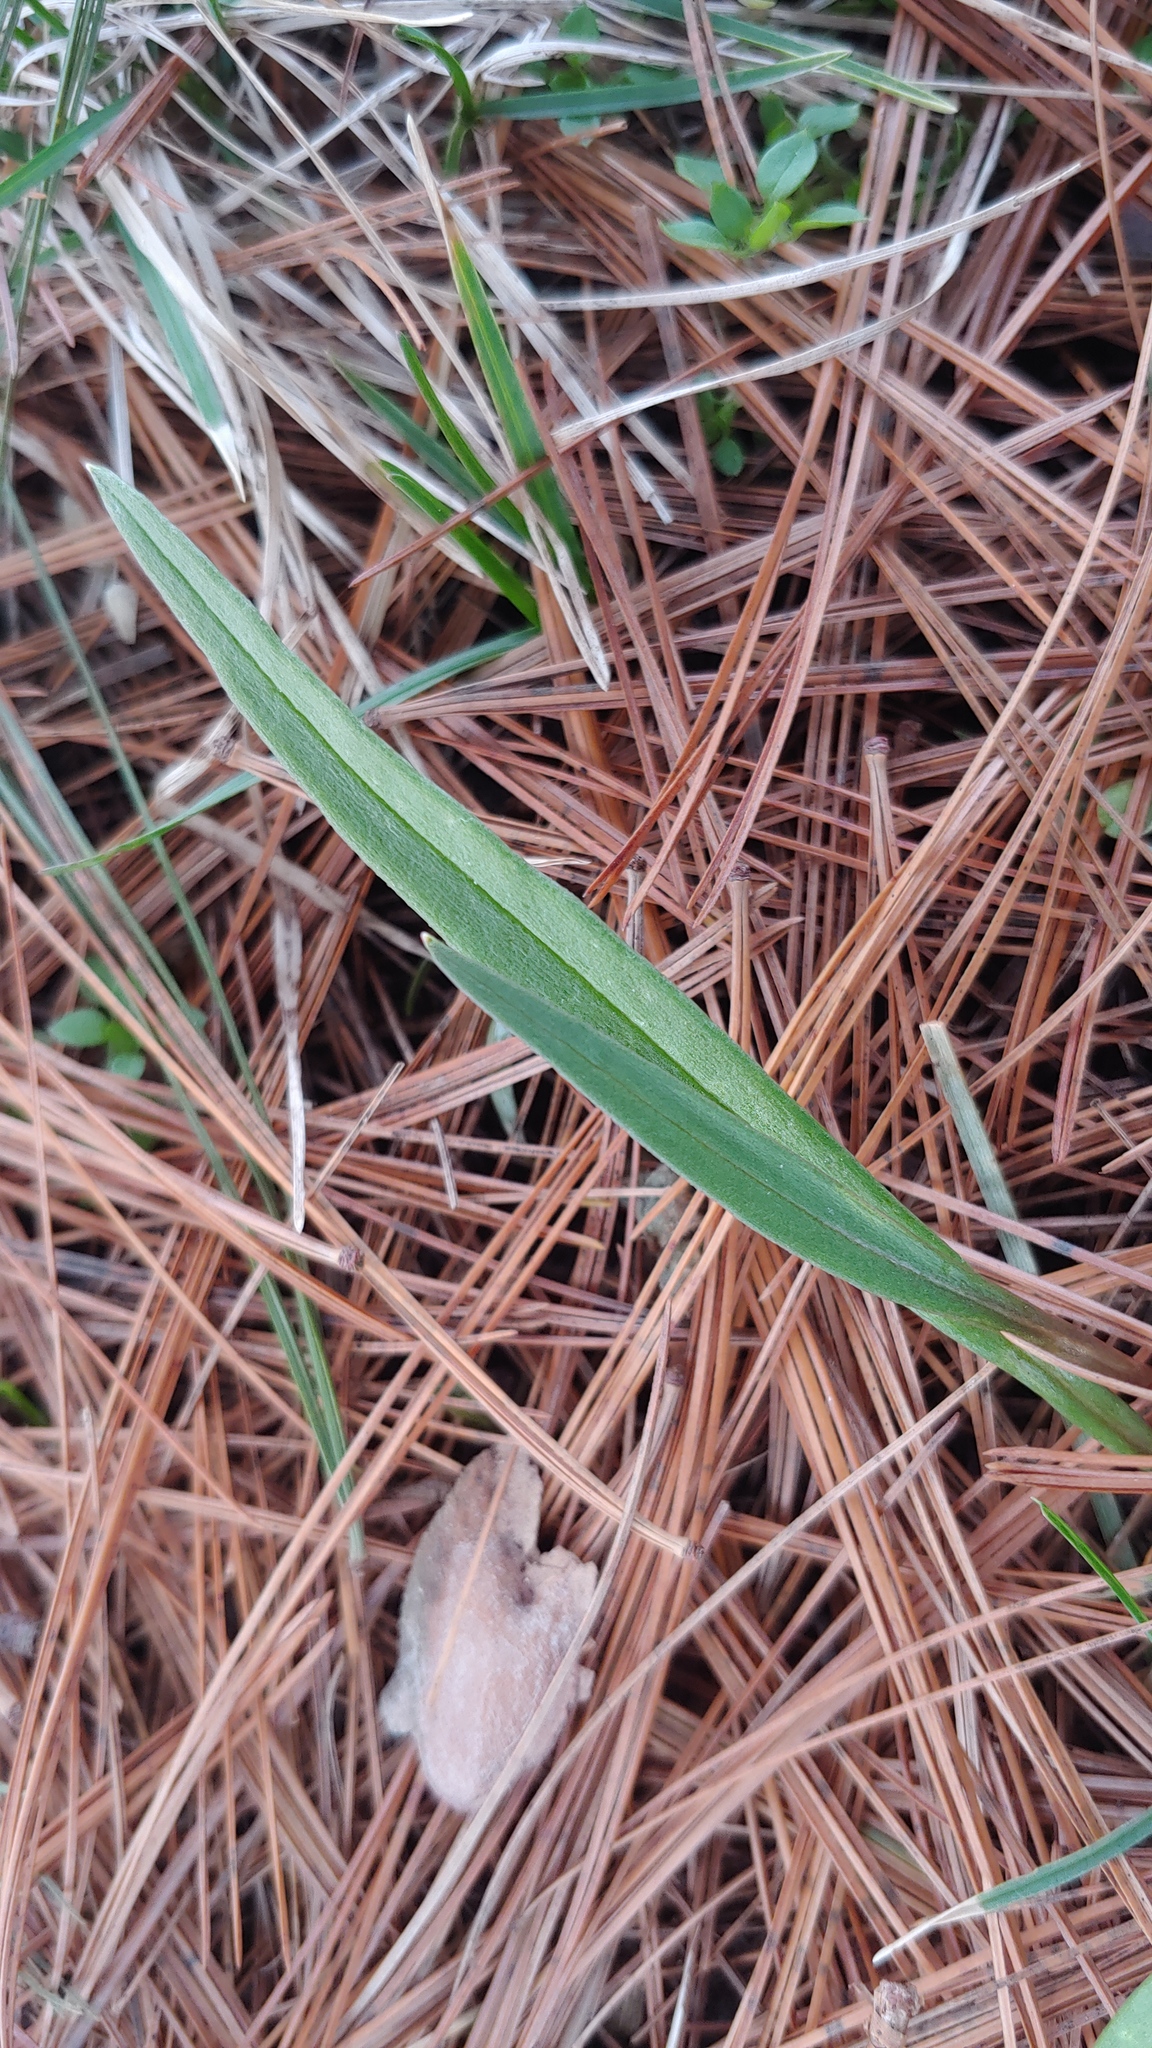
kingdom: Plantae
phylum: Tracheophyta
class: Magnoliopsida
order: Caryophyllales
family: Montiaceae
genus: Claytonia
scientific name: Claytonia virginica
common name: Virginia springbeauty
